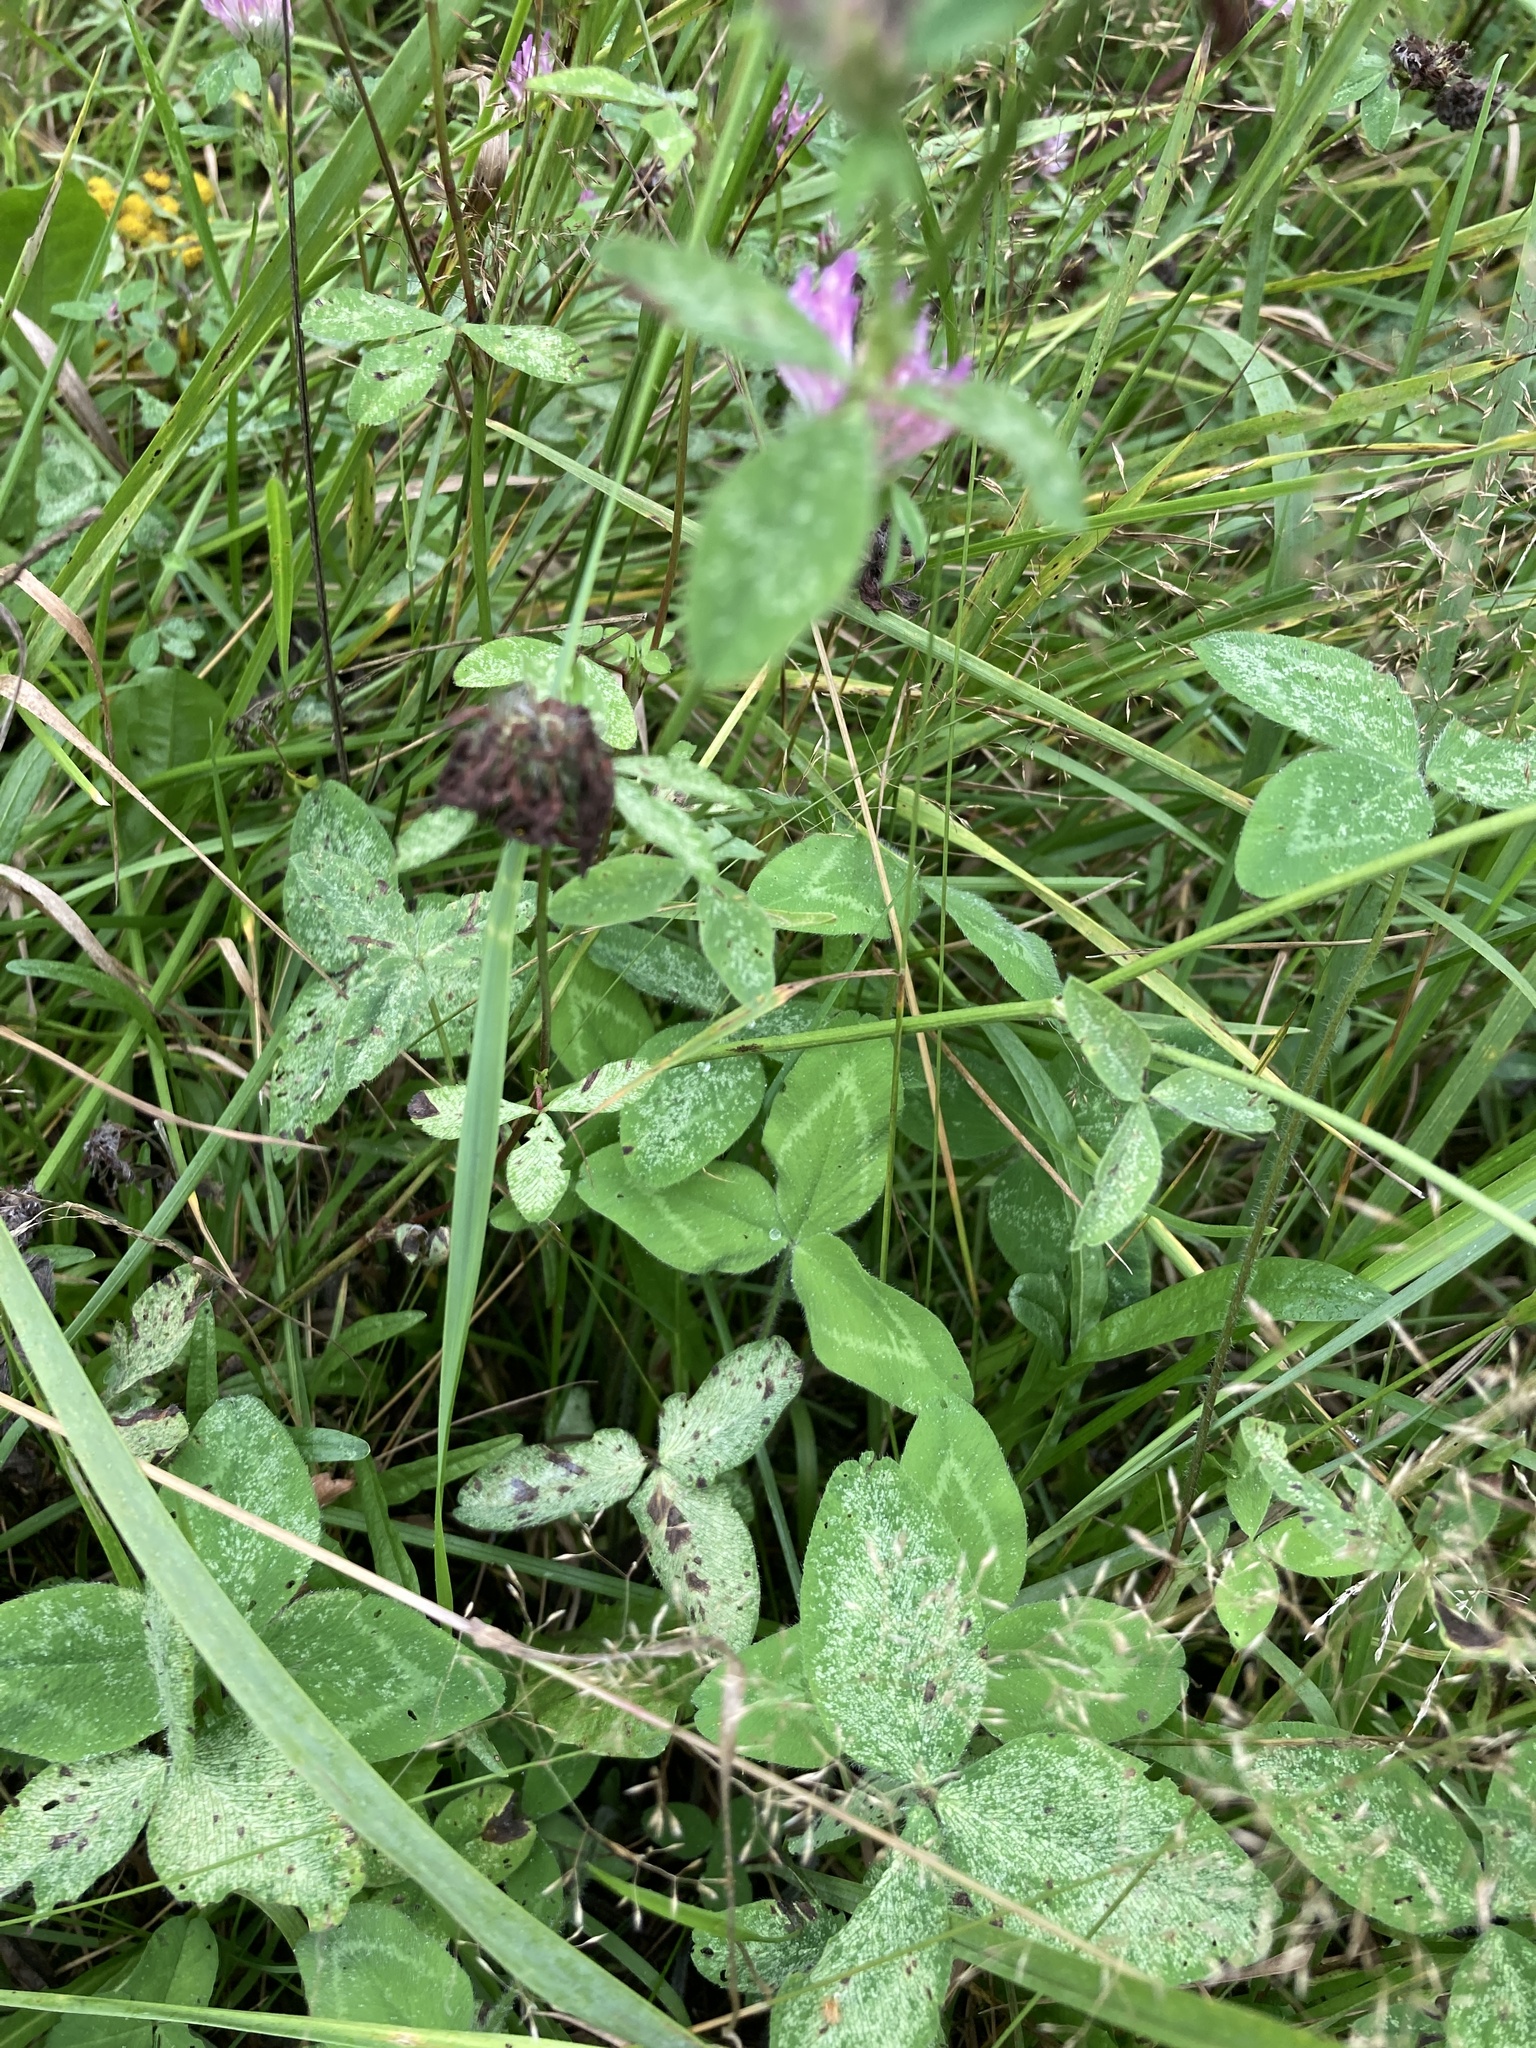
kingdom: Plantae
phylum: Tracheophyta
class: Magnoliopsida
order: Fabales
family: Fabaceae
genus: Trifolium
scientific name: Trifolium pratense
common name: Red clover
